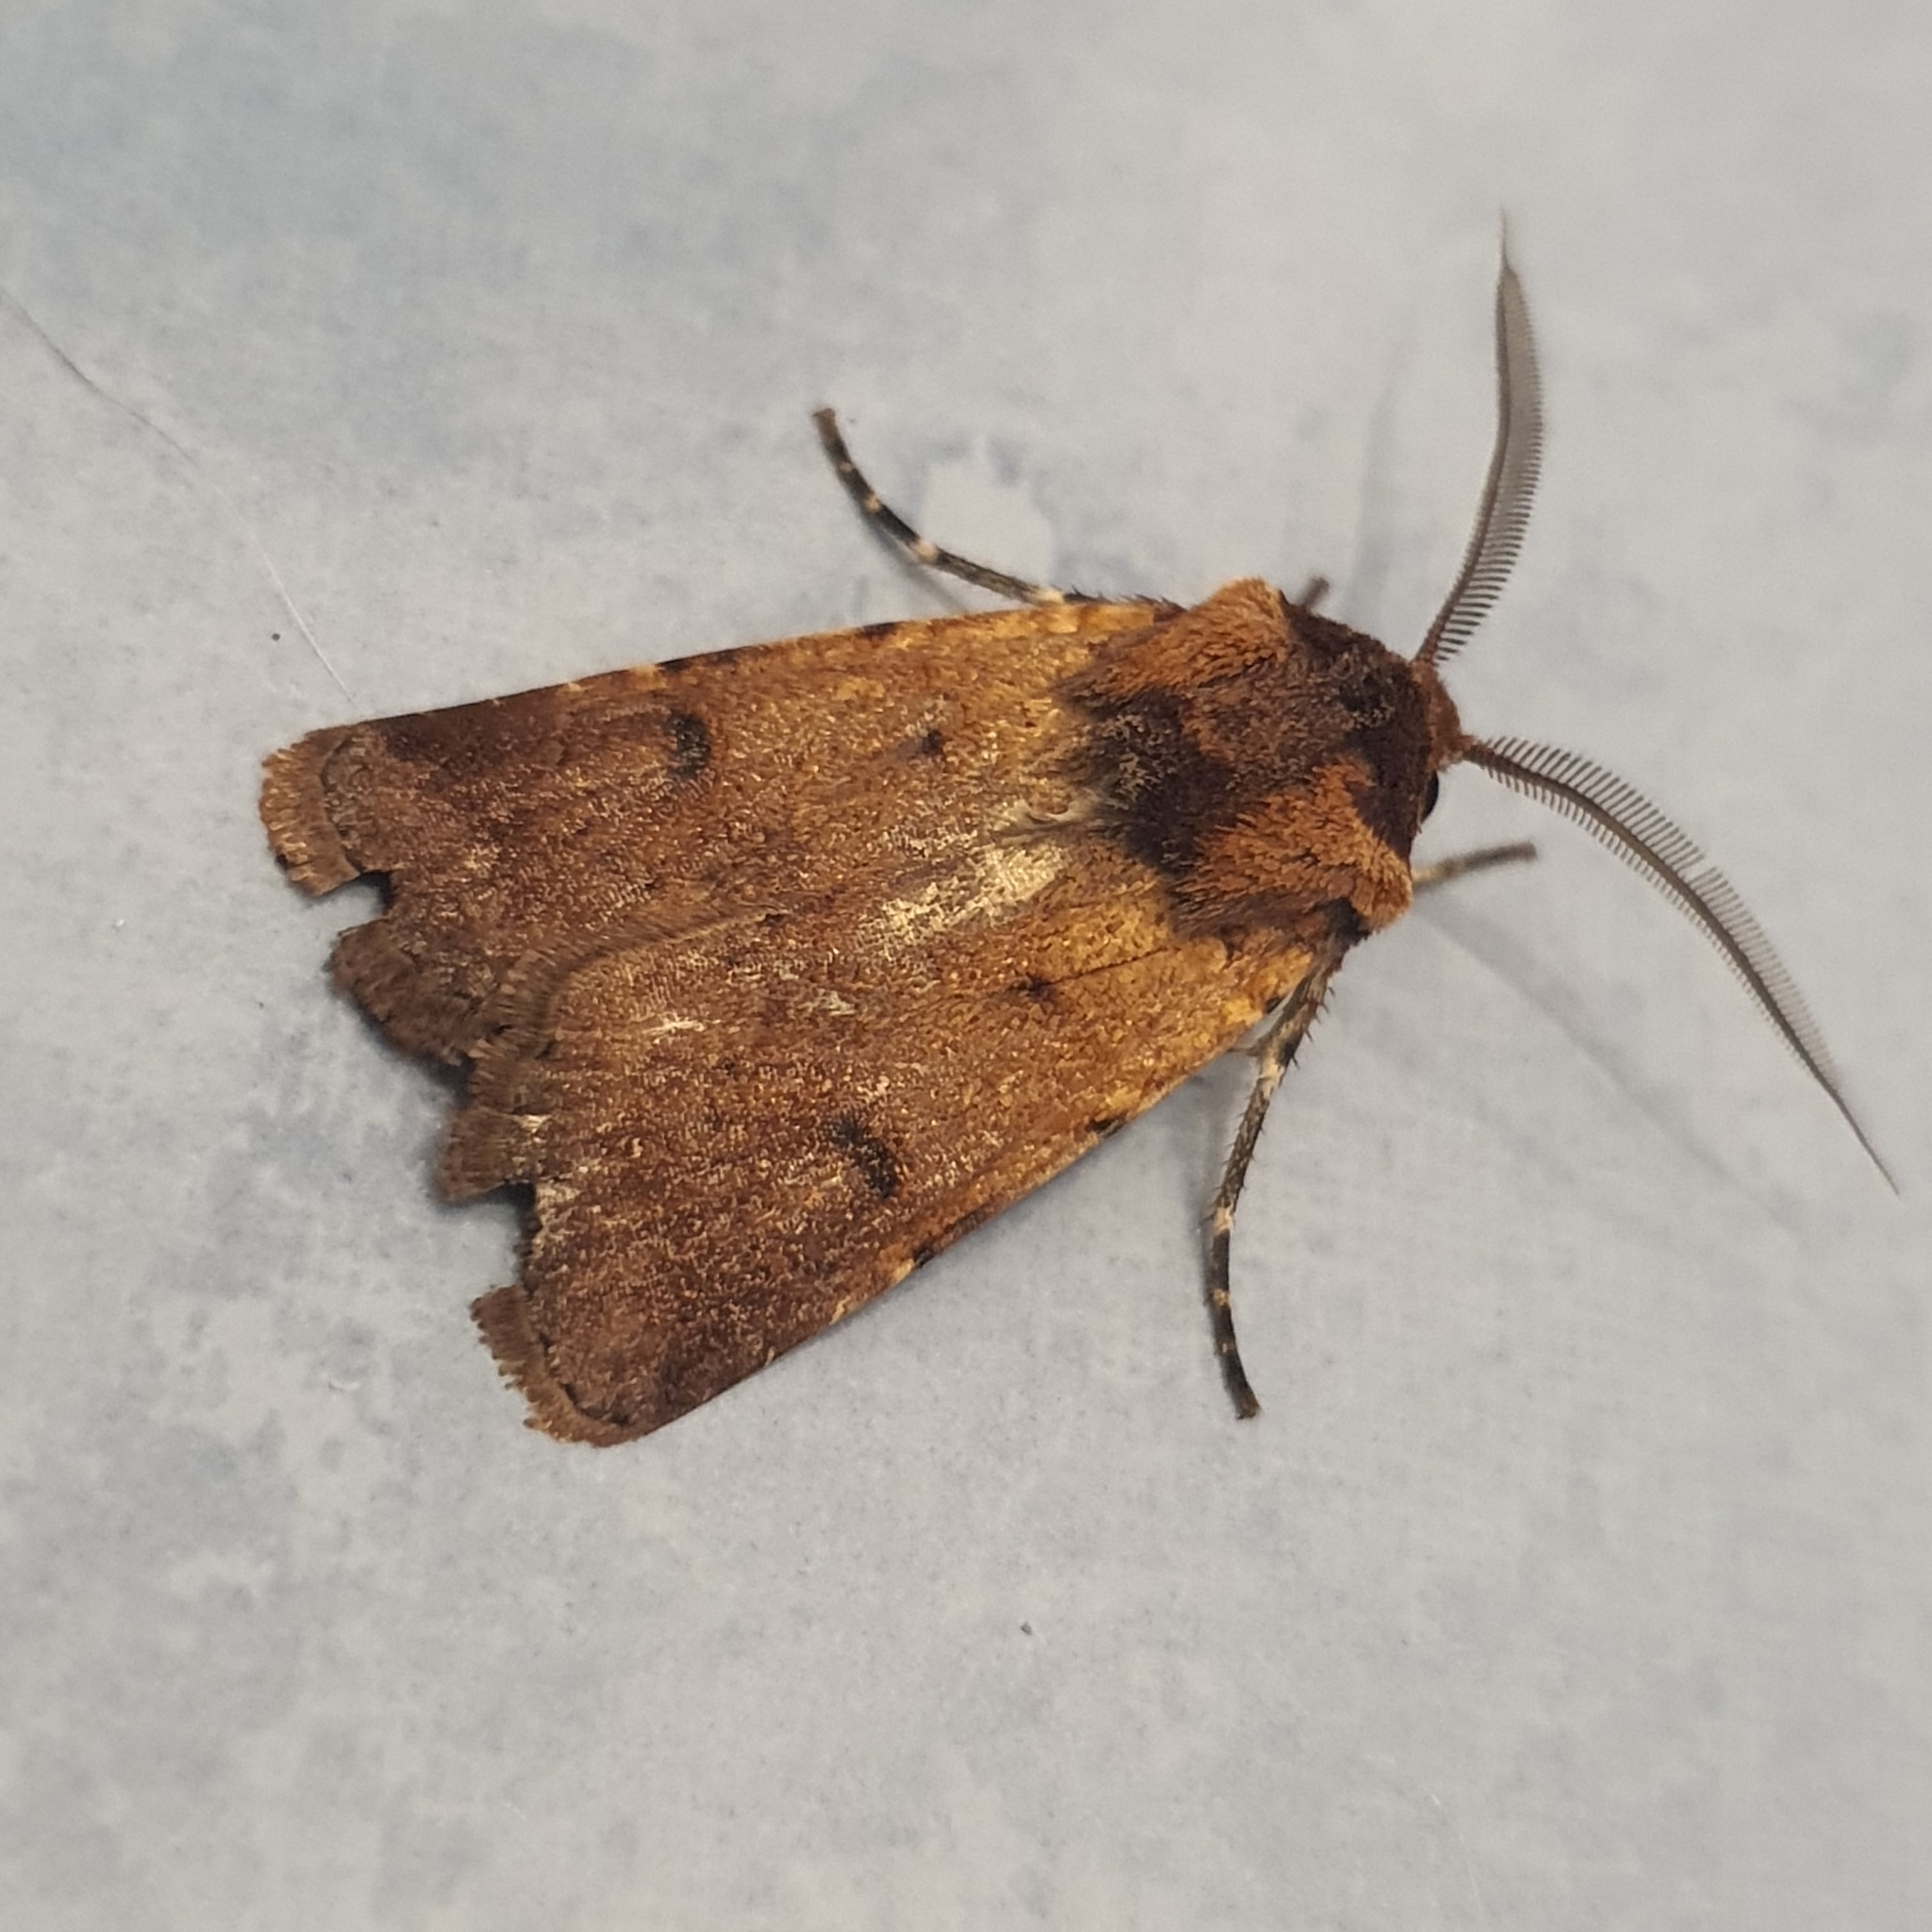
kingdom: Animalia
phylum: Arthropoda
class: Insecta
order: Lepidoptera
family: Noctuidae
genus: Agrotis
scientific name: Agrotis porphyricollis
